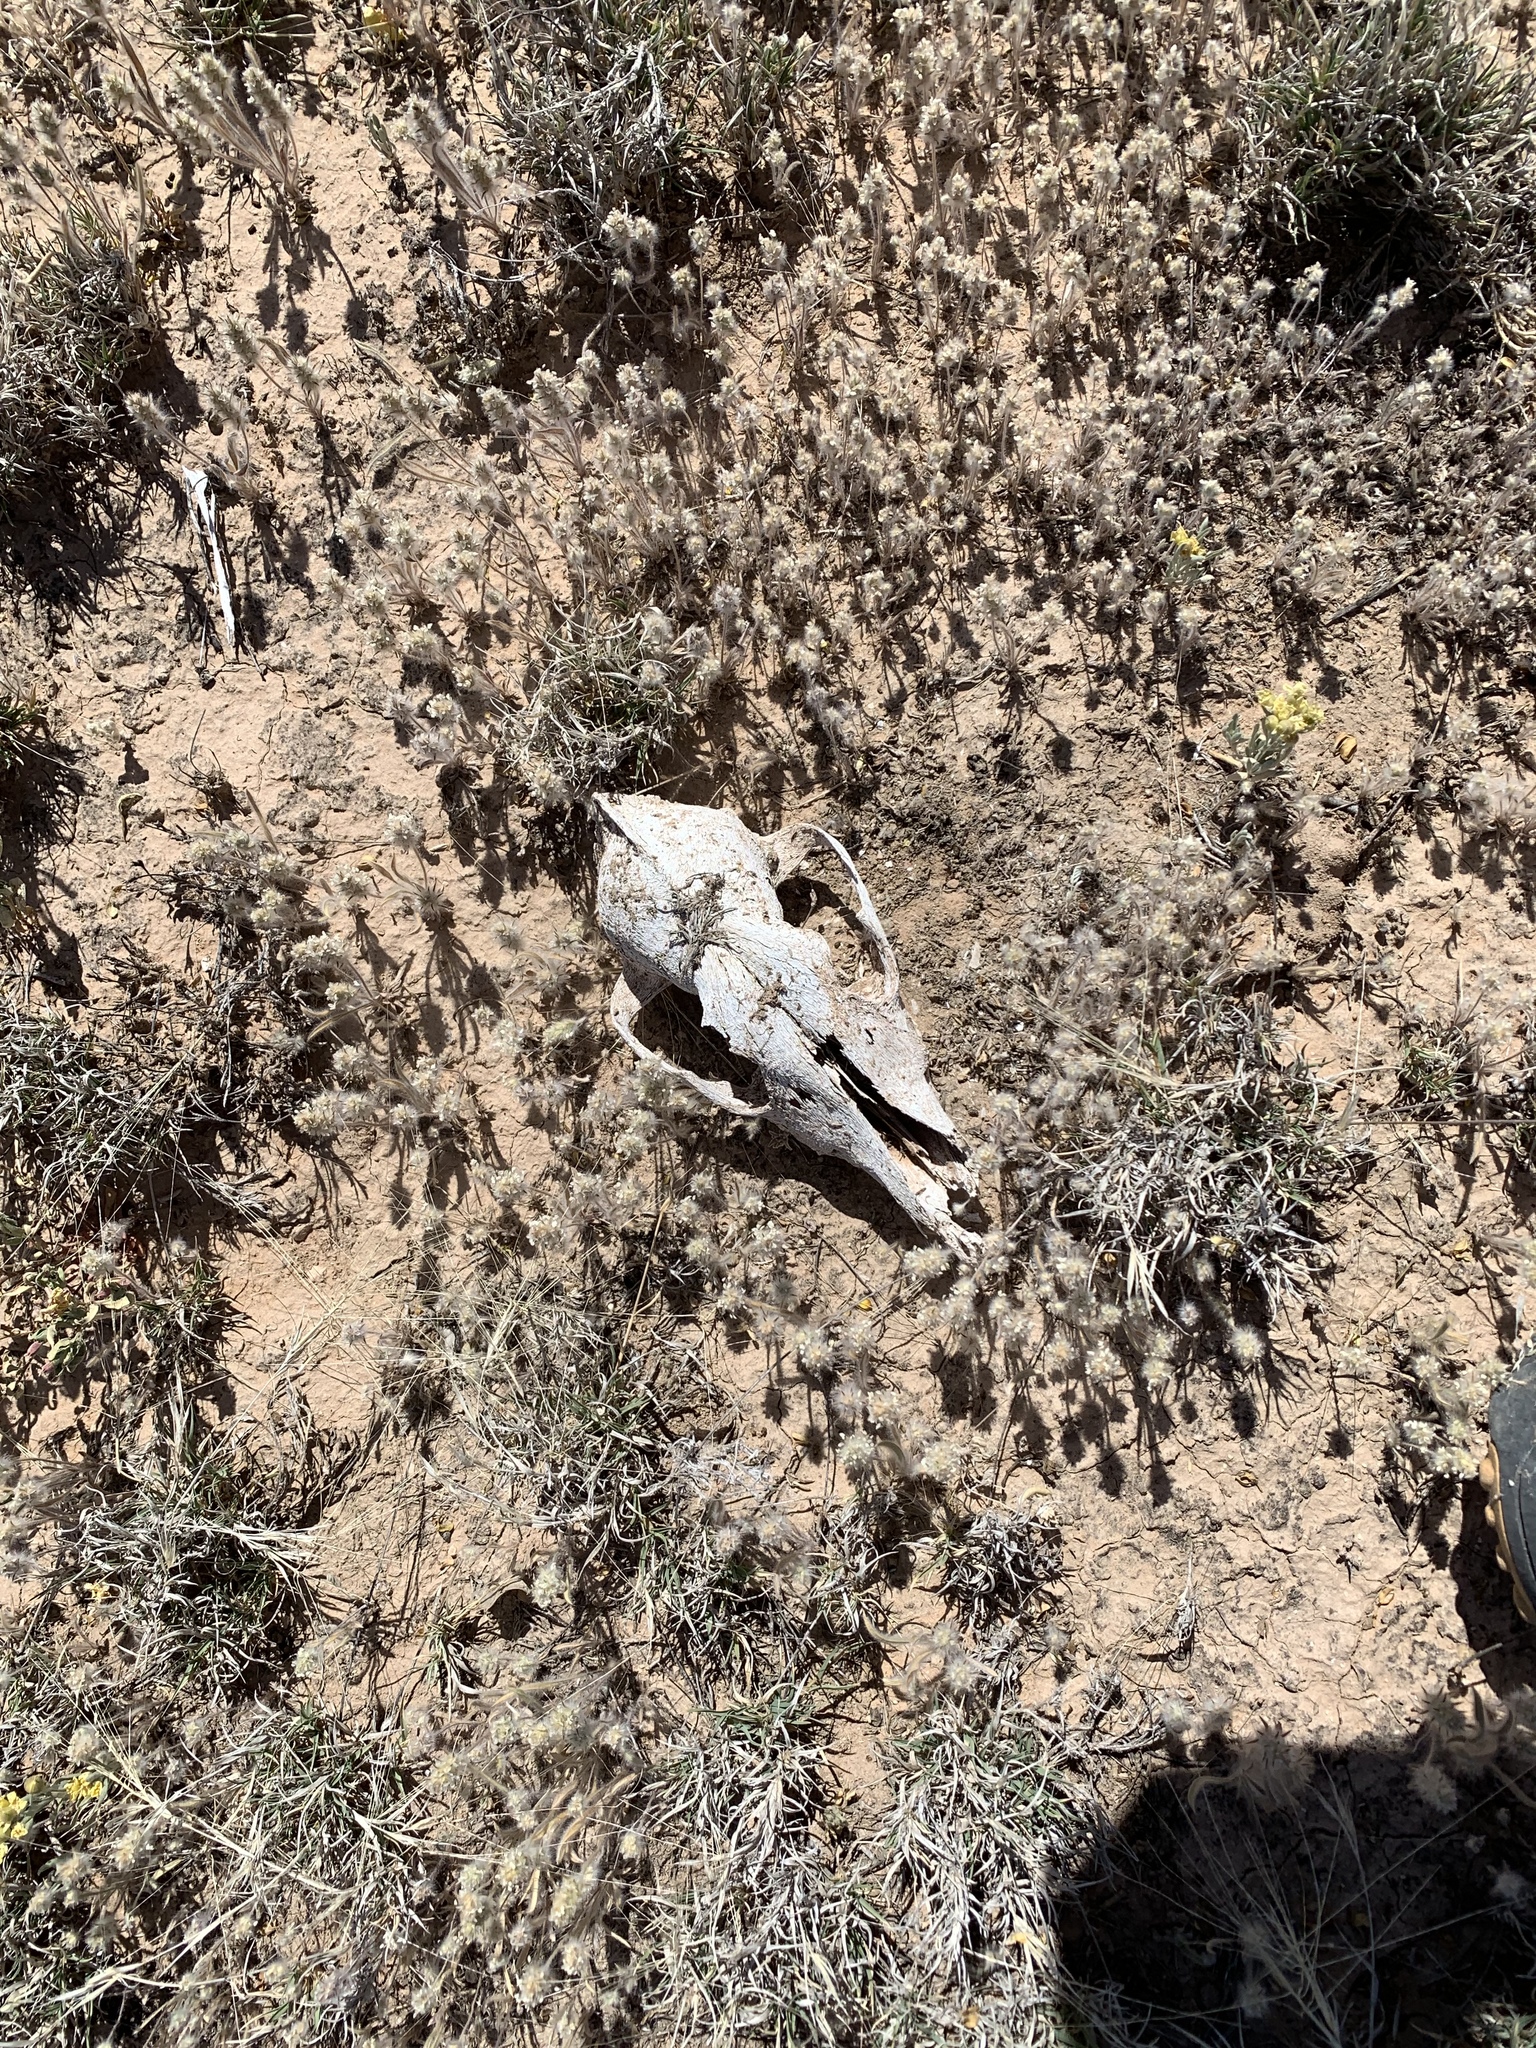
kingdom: Animalia
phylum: Chordata
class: Mammalia
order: Carnivora
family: Canidae
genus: Canis
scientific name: Canis latrans
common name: Coyote
